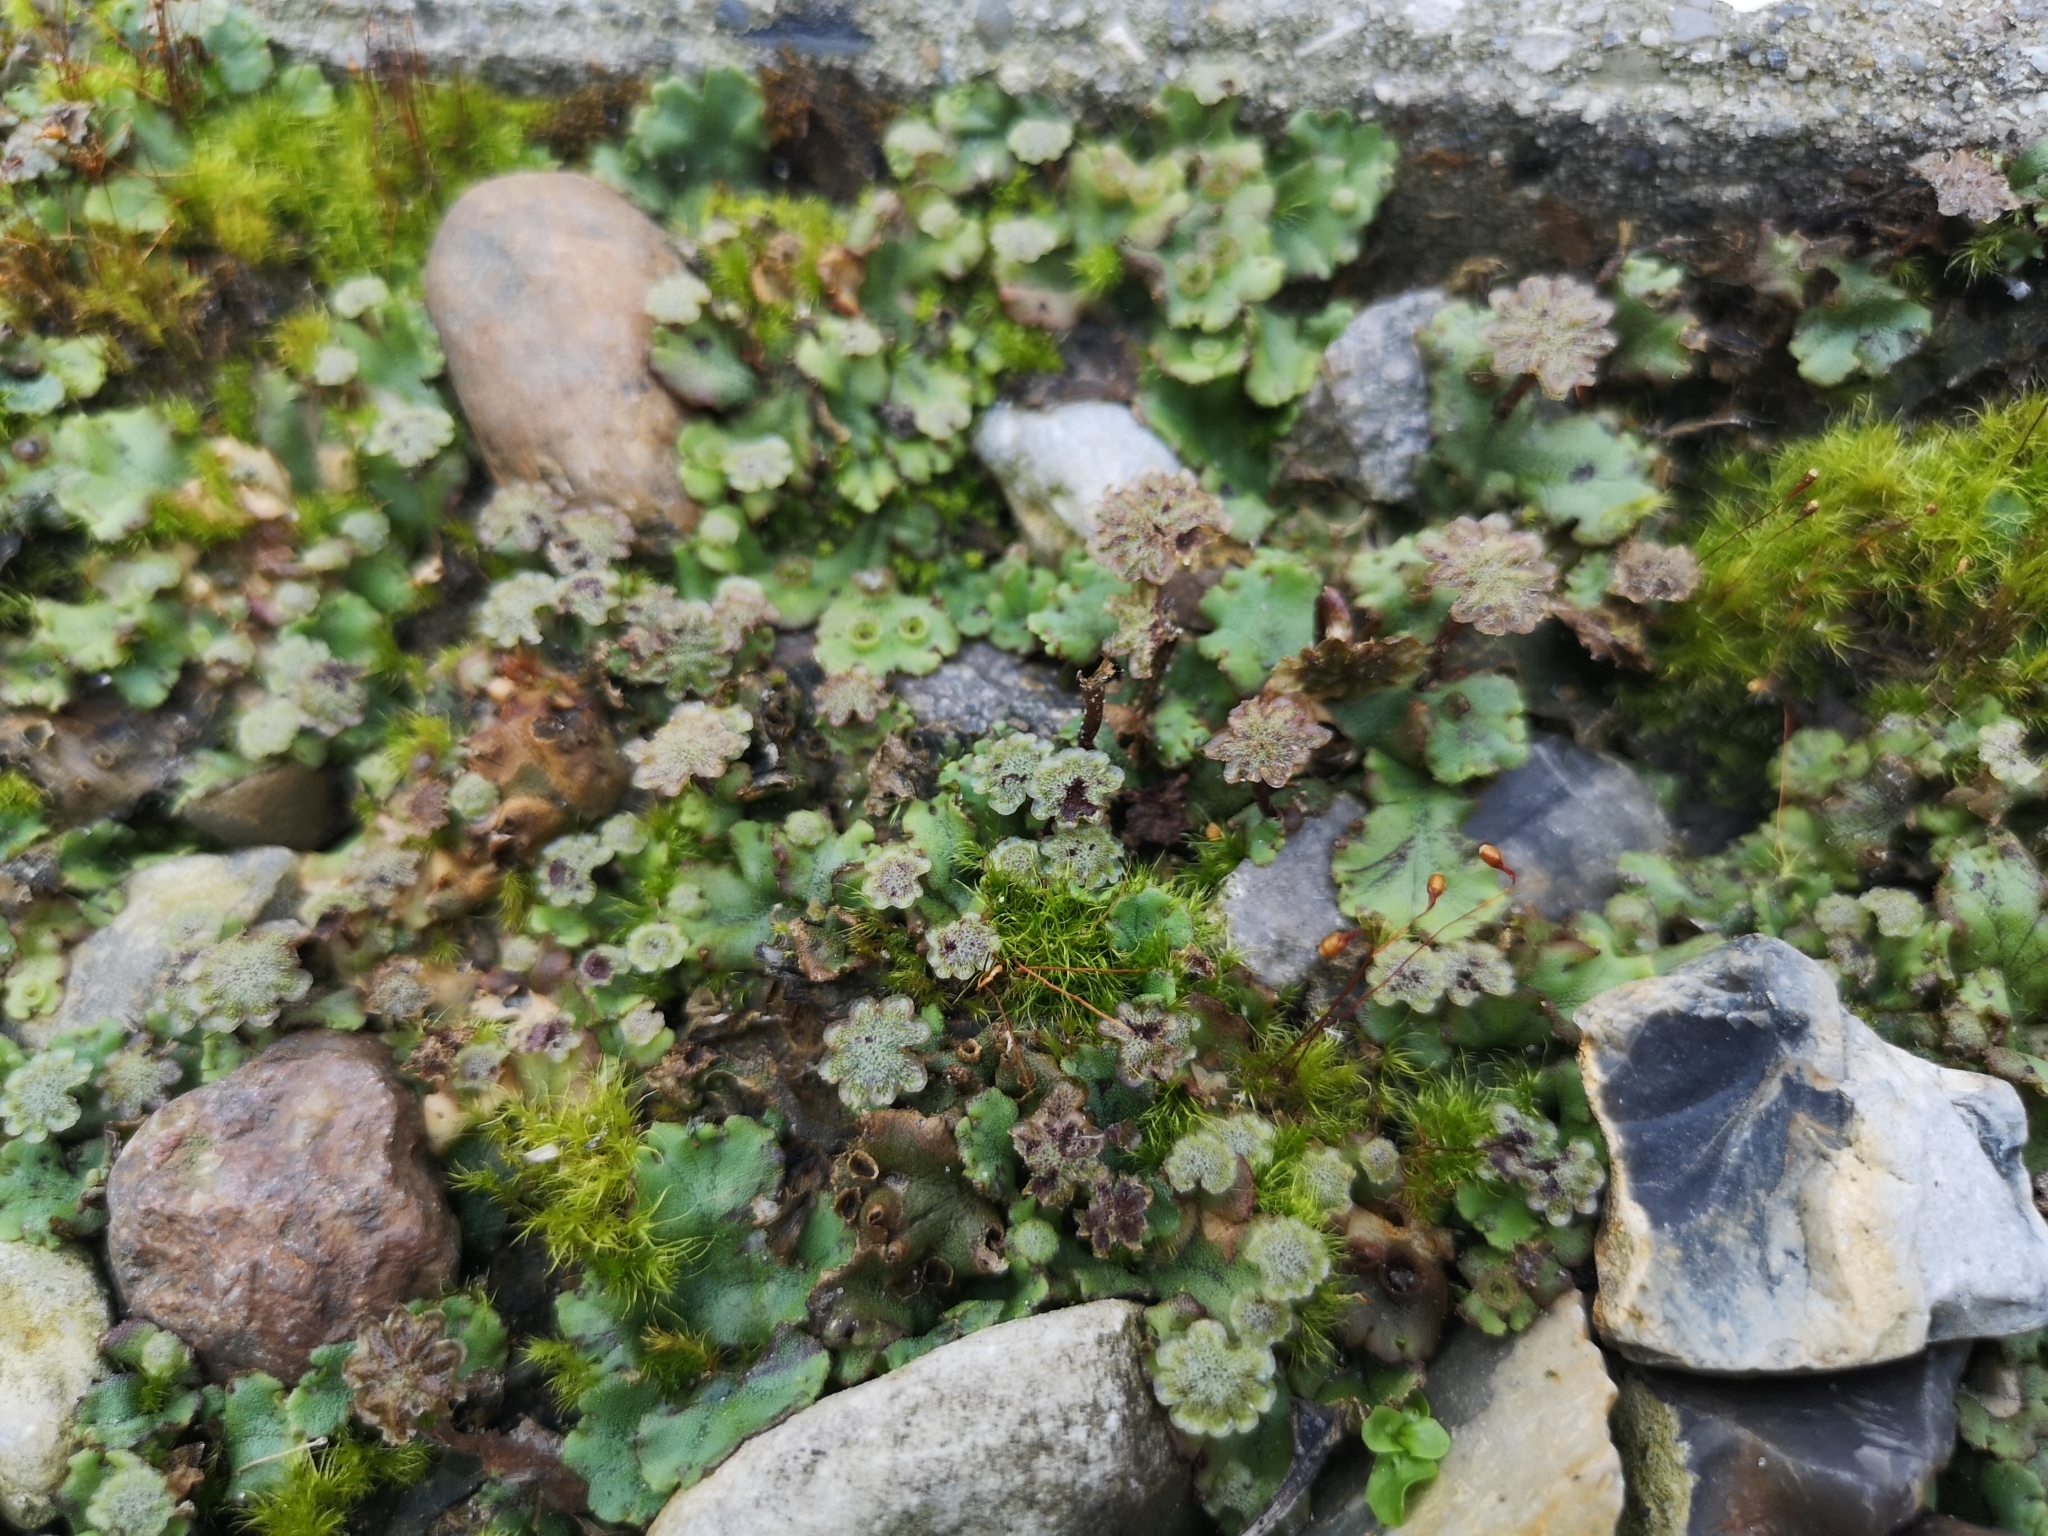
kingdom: Plantae
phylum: Marchantiophyta
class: Marchantiopsida
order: Marchantiales
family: Marchantiaceae
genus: Marchantia
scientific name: Marchantia polymorpha
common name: Common liverwort
